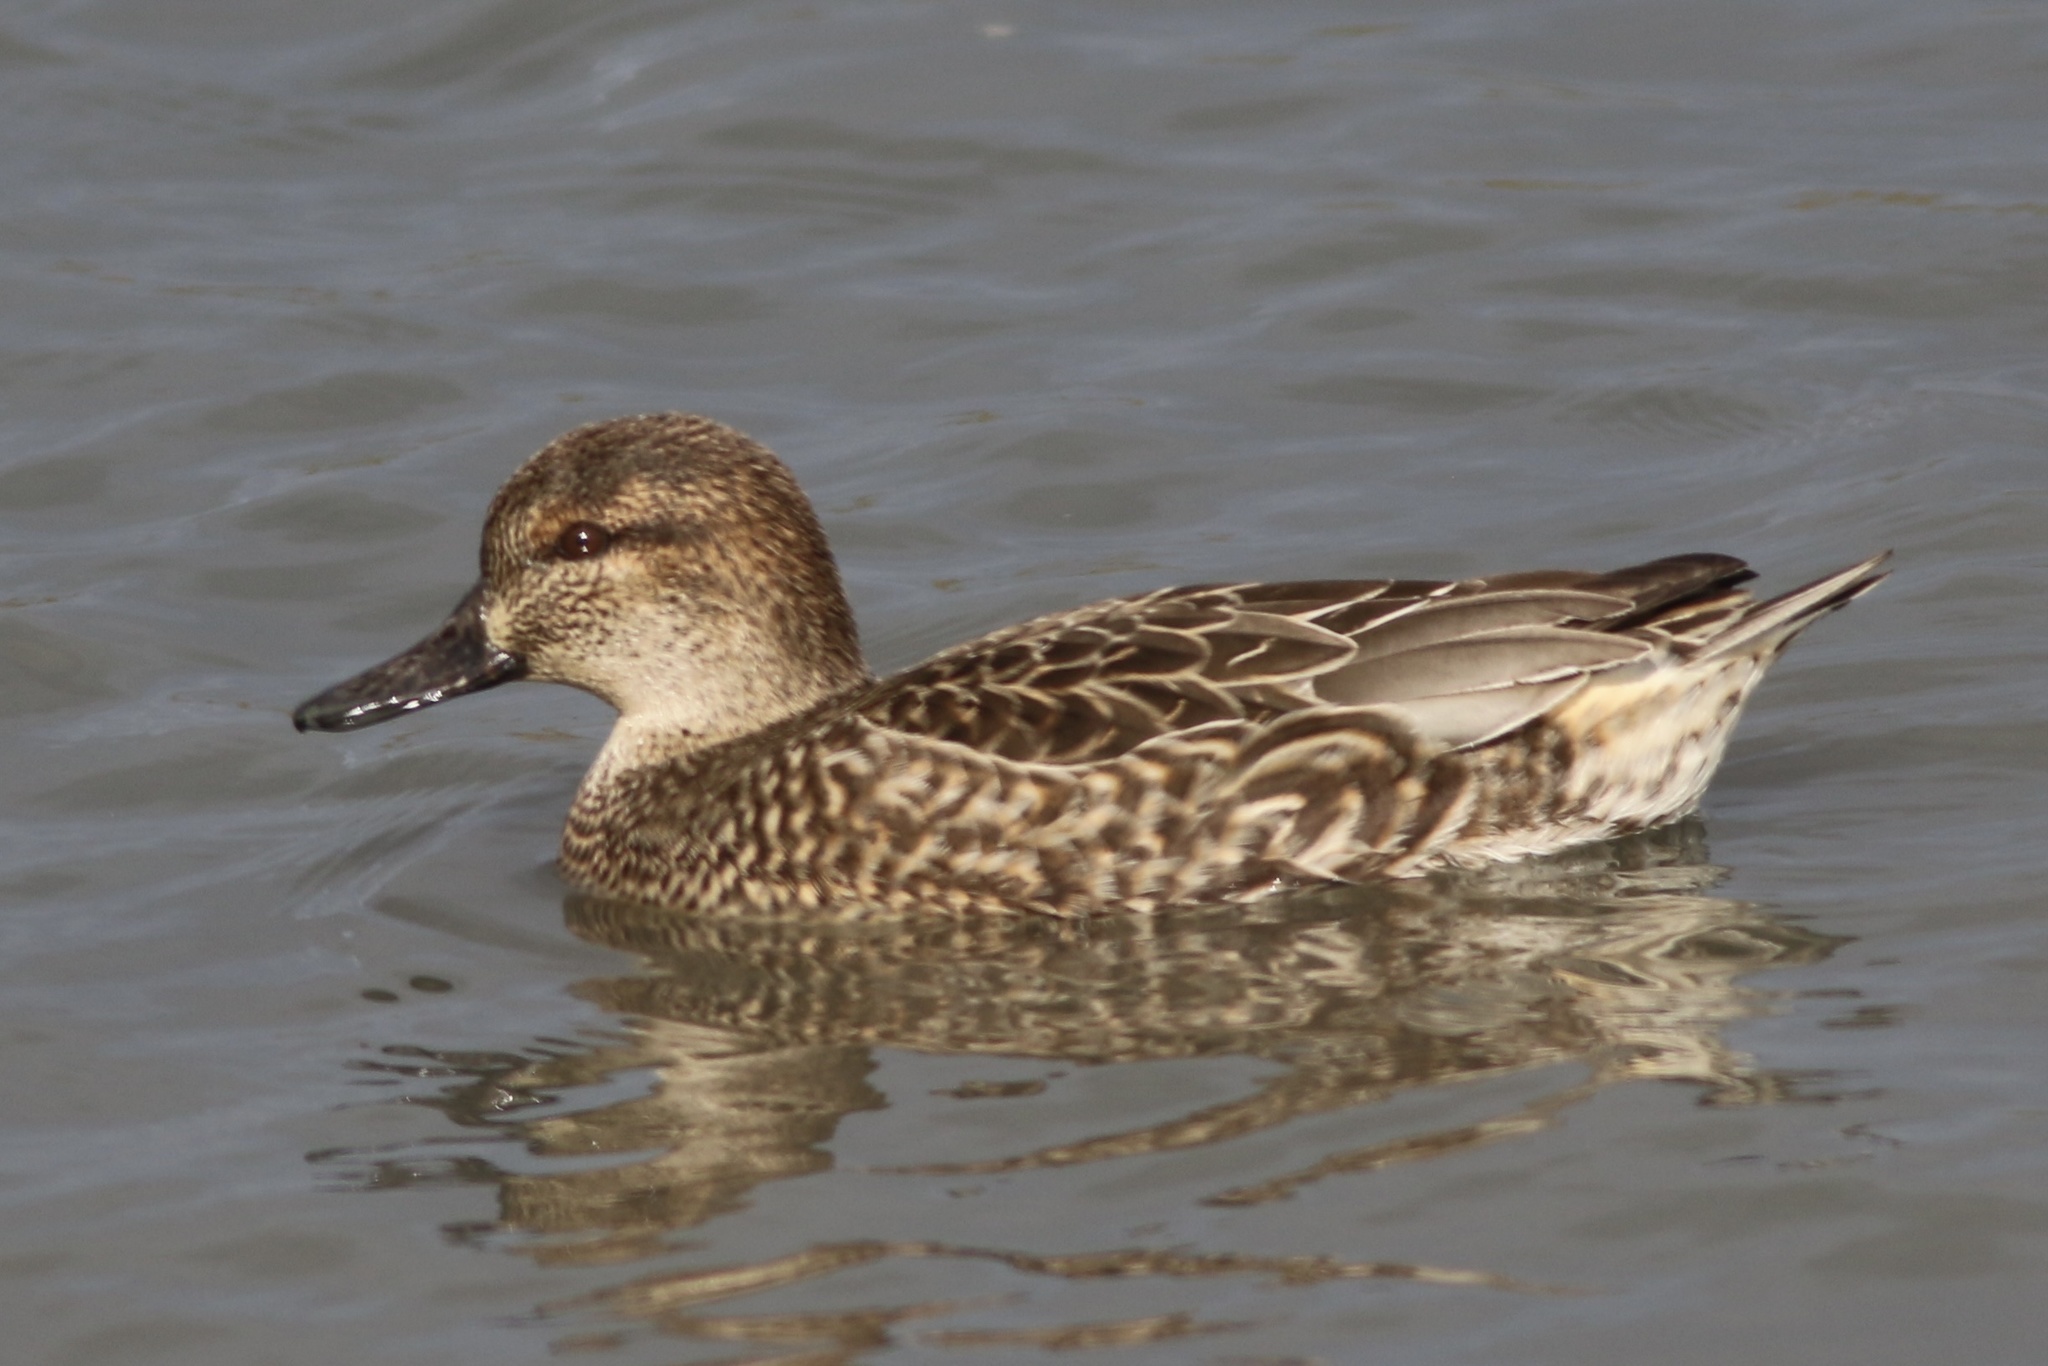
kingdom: Animalia
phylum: Chordata
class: Aves
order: Anseriformes
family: Anatidae
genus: Anas
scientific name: Anas crecca
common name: Eurasian teal
